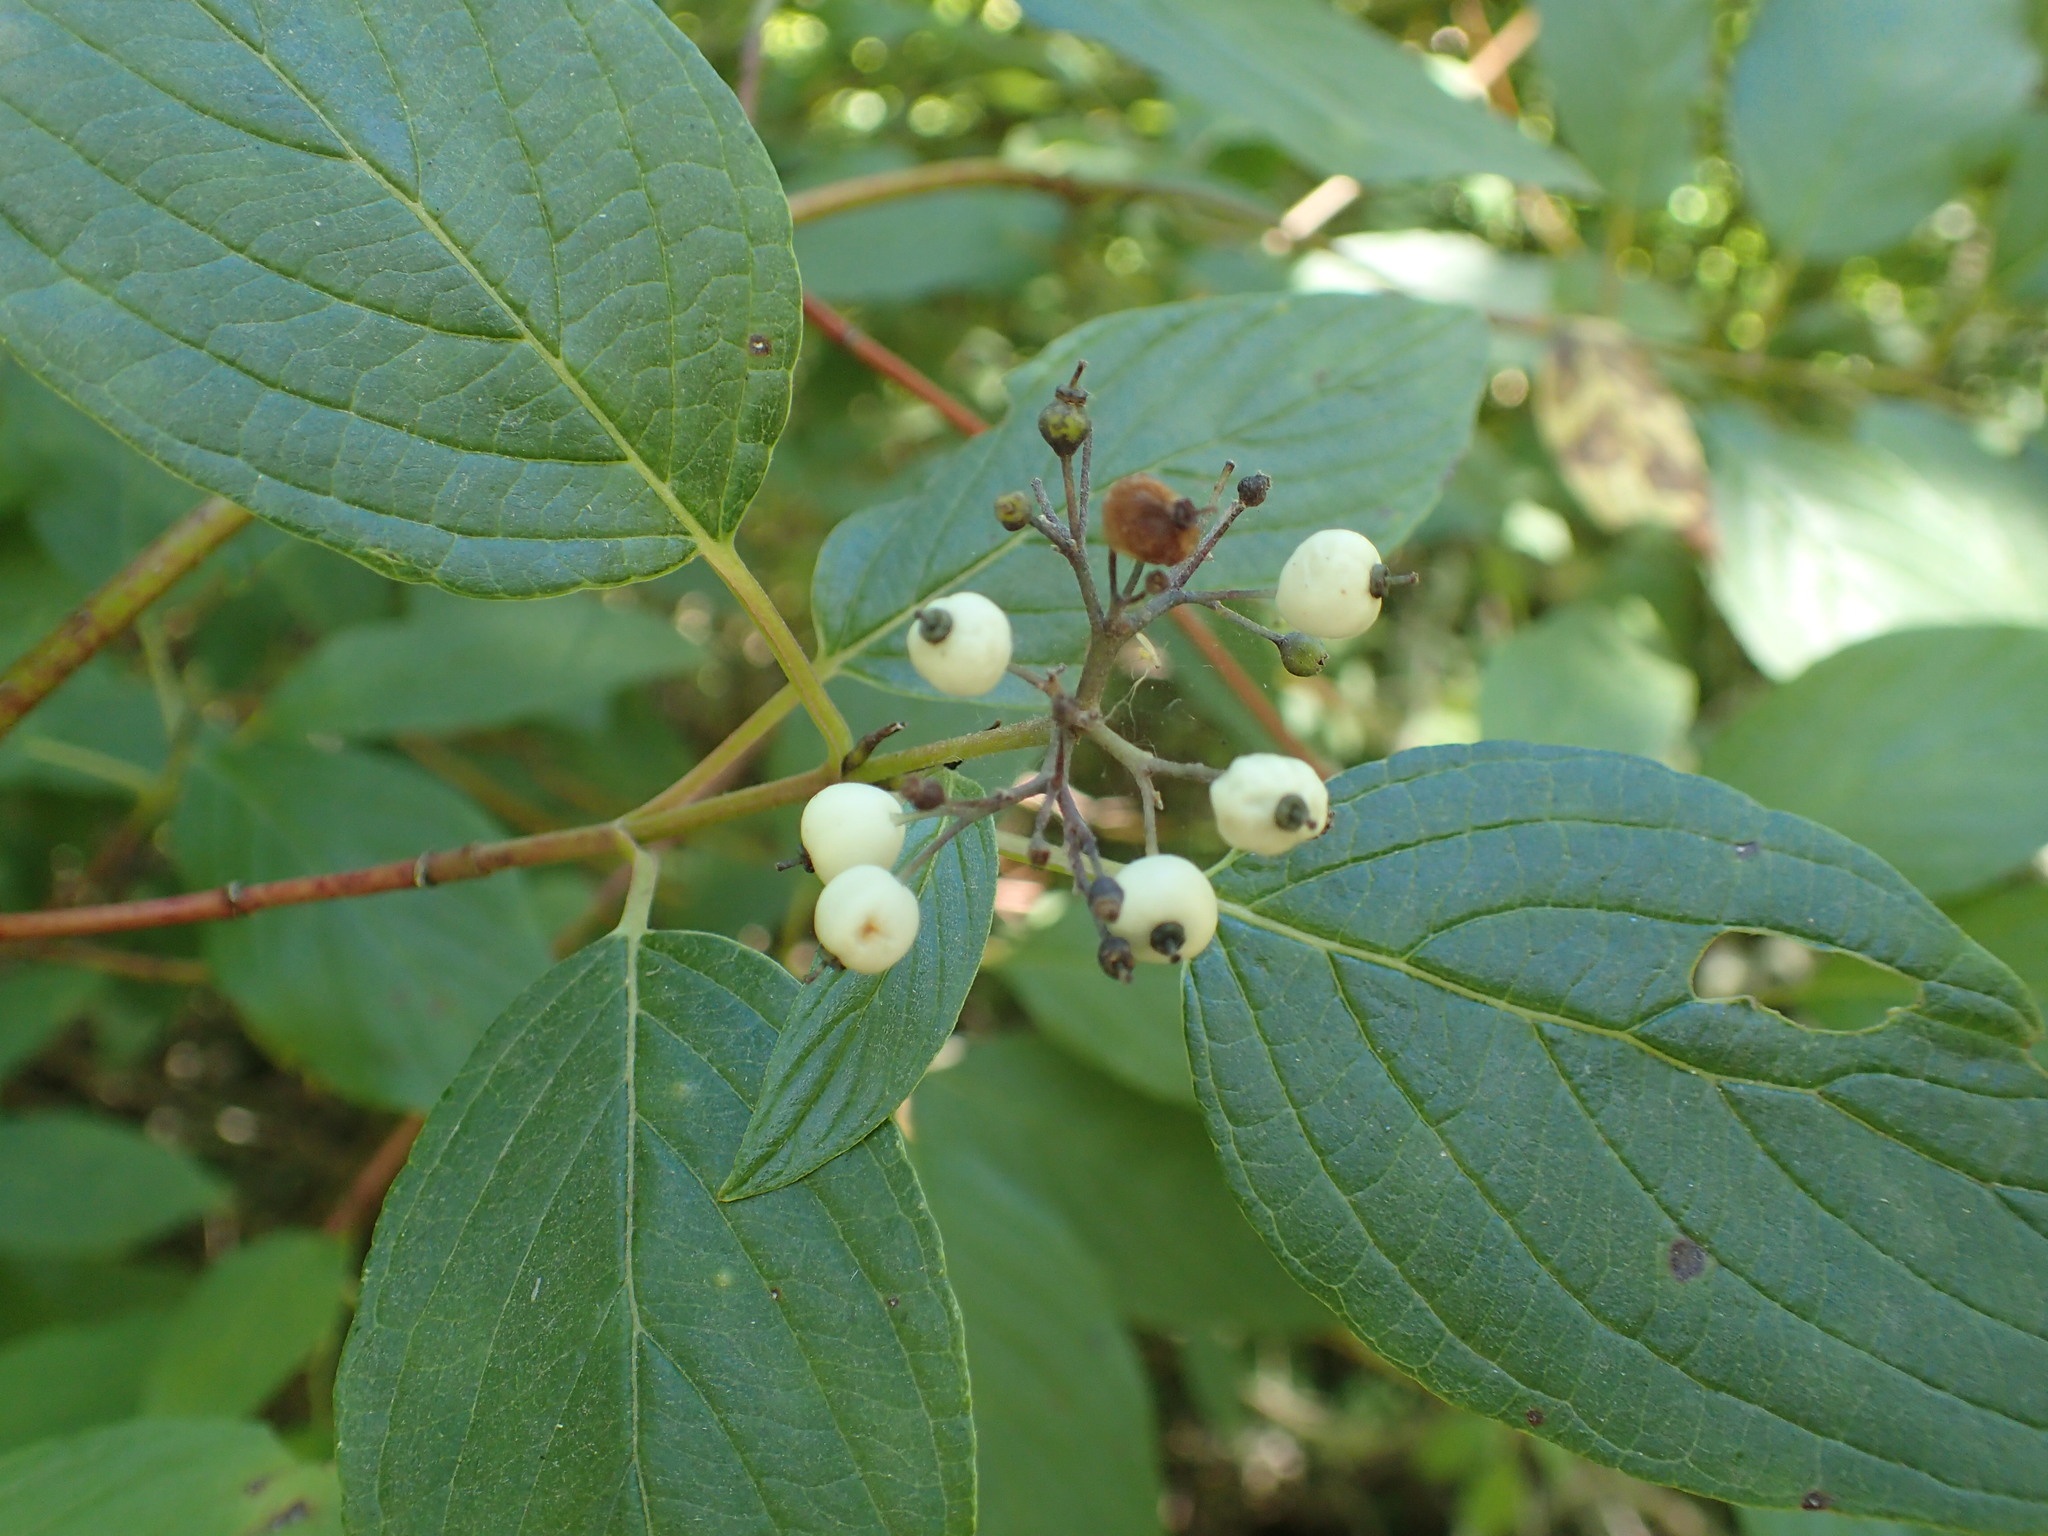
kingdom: Plantae
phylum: Tracheophyta
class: Magnoliopsida
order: Cornales
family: Cornaceae
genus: Cornus
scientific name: Cornus sericea
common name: Red-osier dogwood
